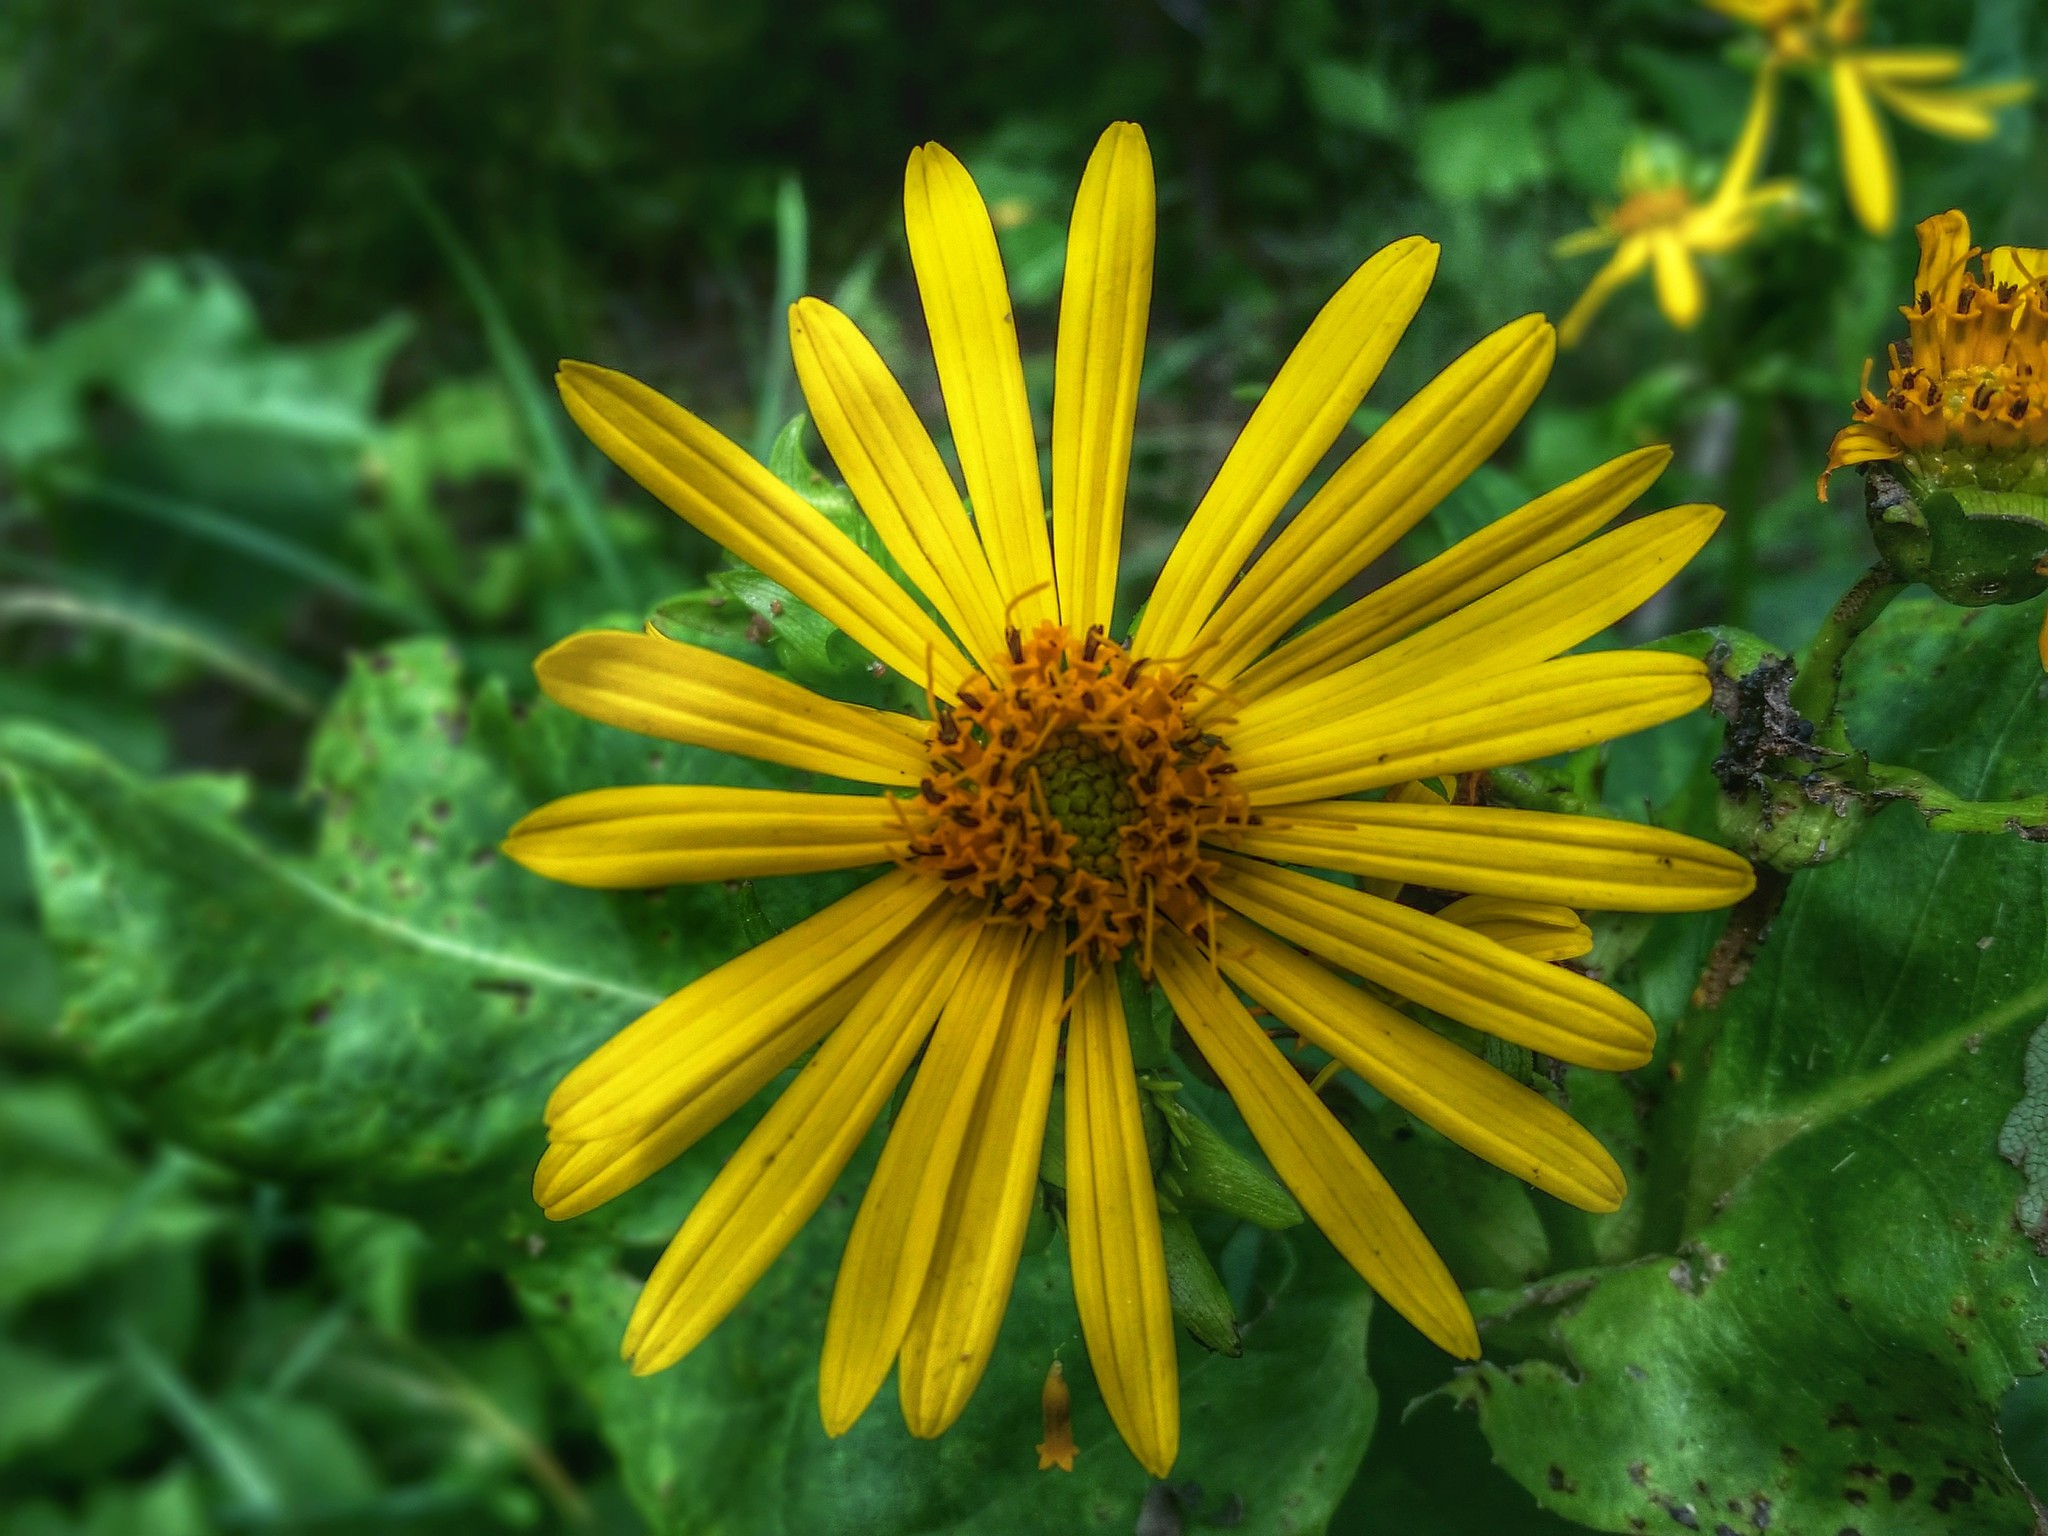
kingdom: Plantae
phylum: Tracheophyta
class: Magnoliopsida
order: Asterales
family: Asteraceae
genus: Silphium
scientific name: Silphium perfoliatum
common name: Cup-plant
